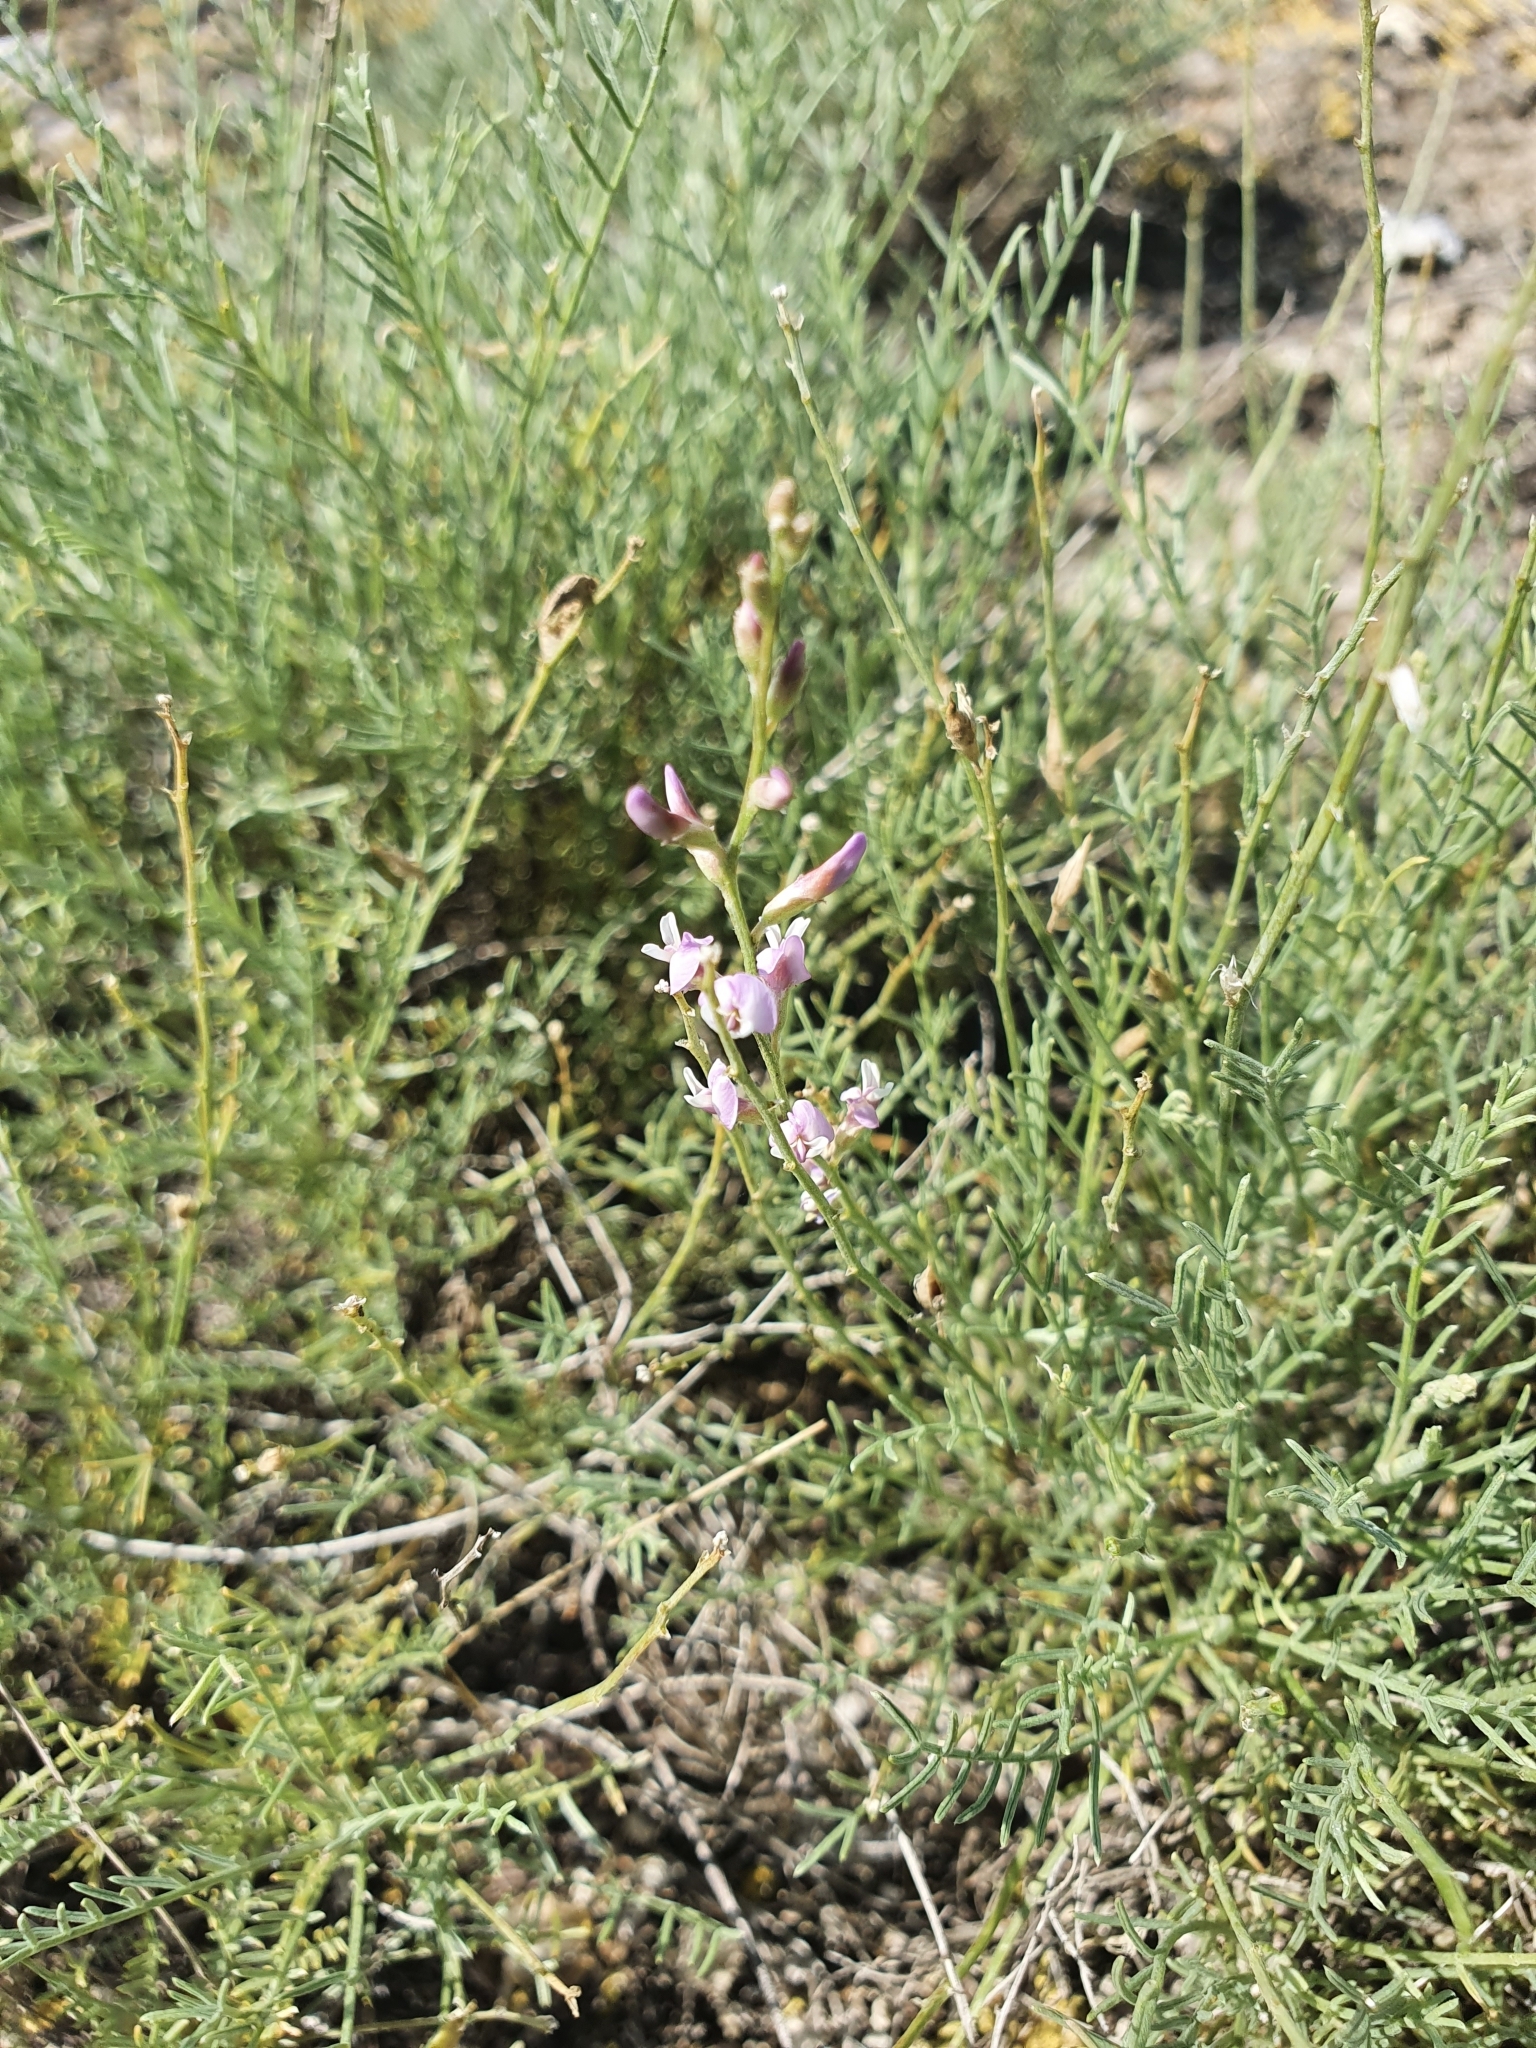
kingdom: Plantae
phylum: Tracheophyta
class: Magnoliopsida
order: Fabales
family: Fabaceae
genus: Astragalus
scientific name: Astragalus
